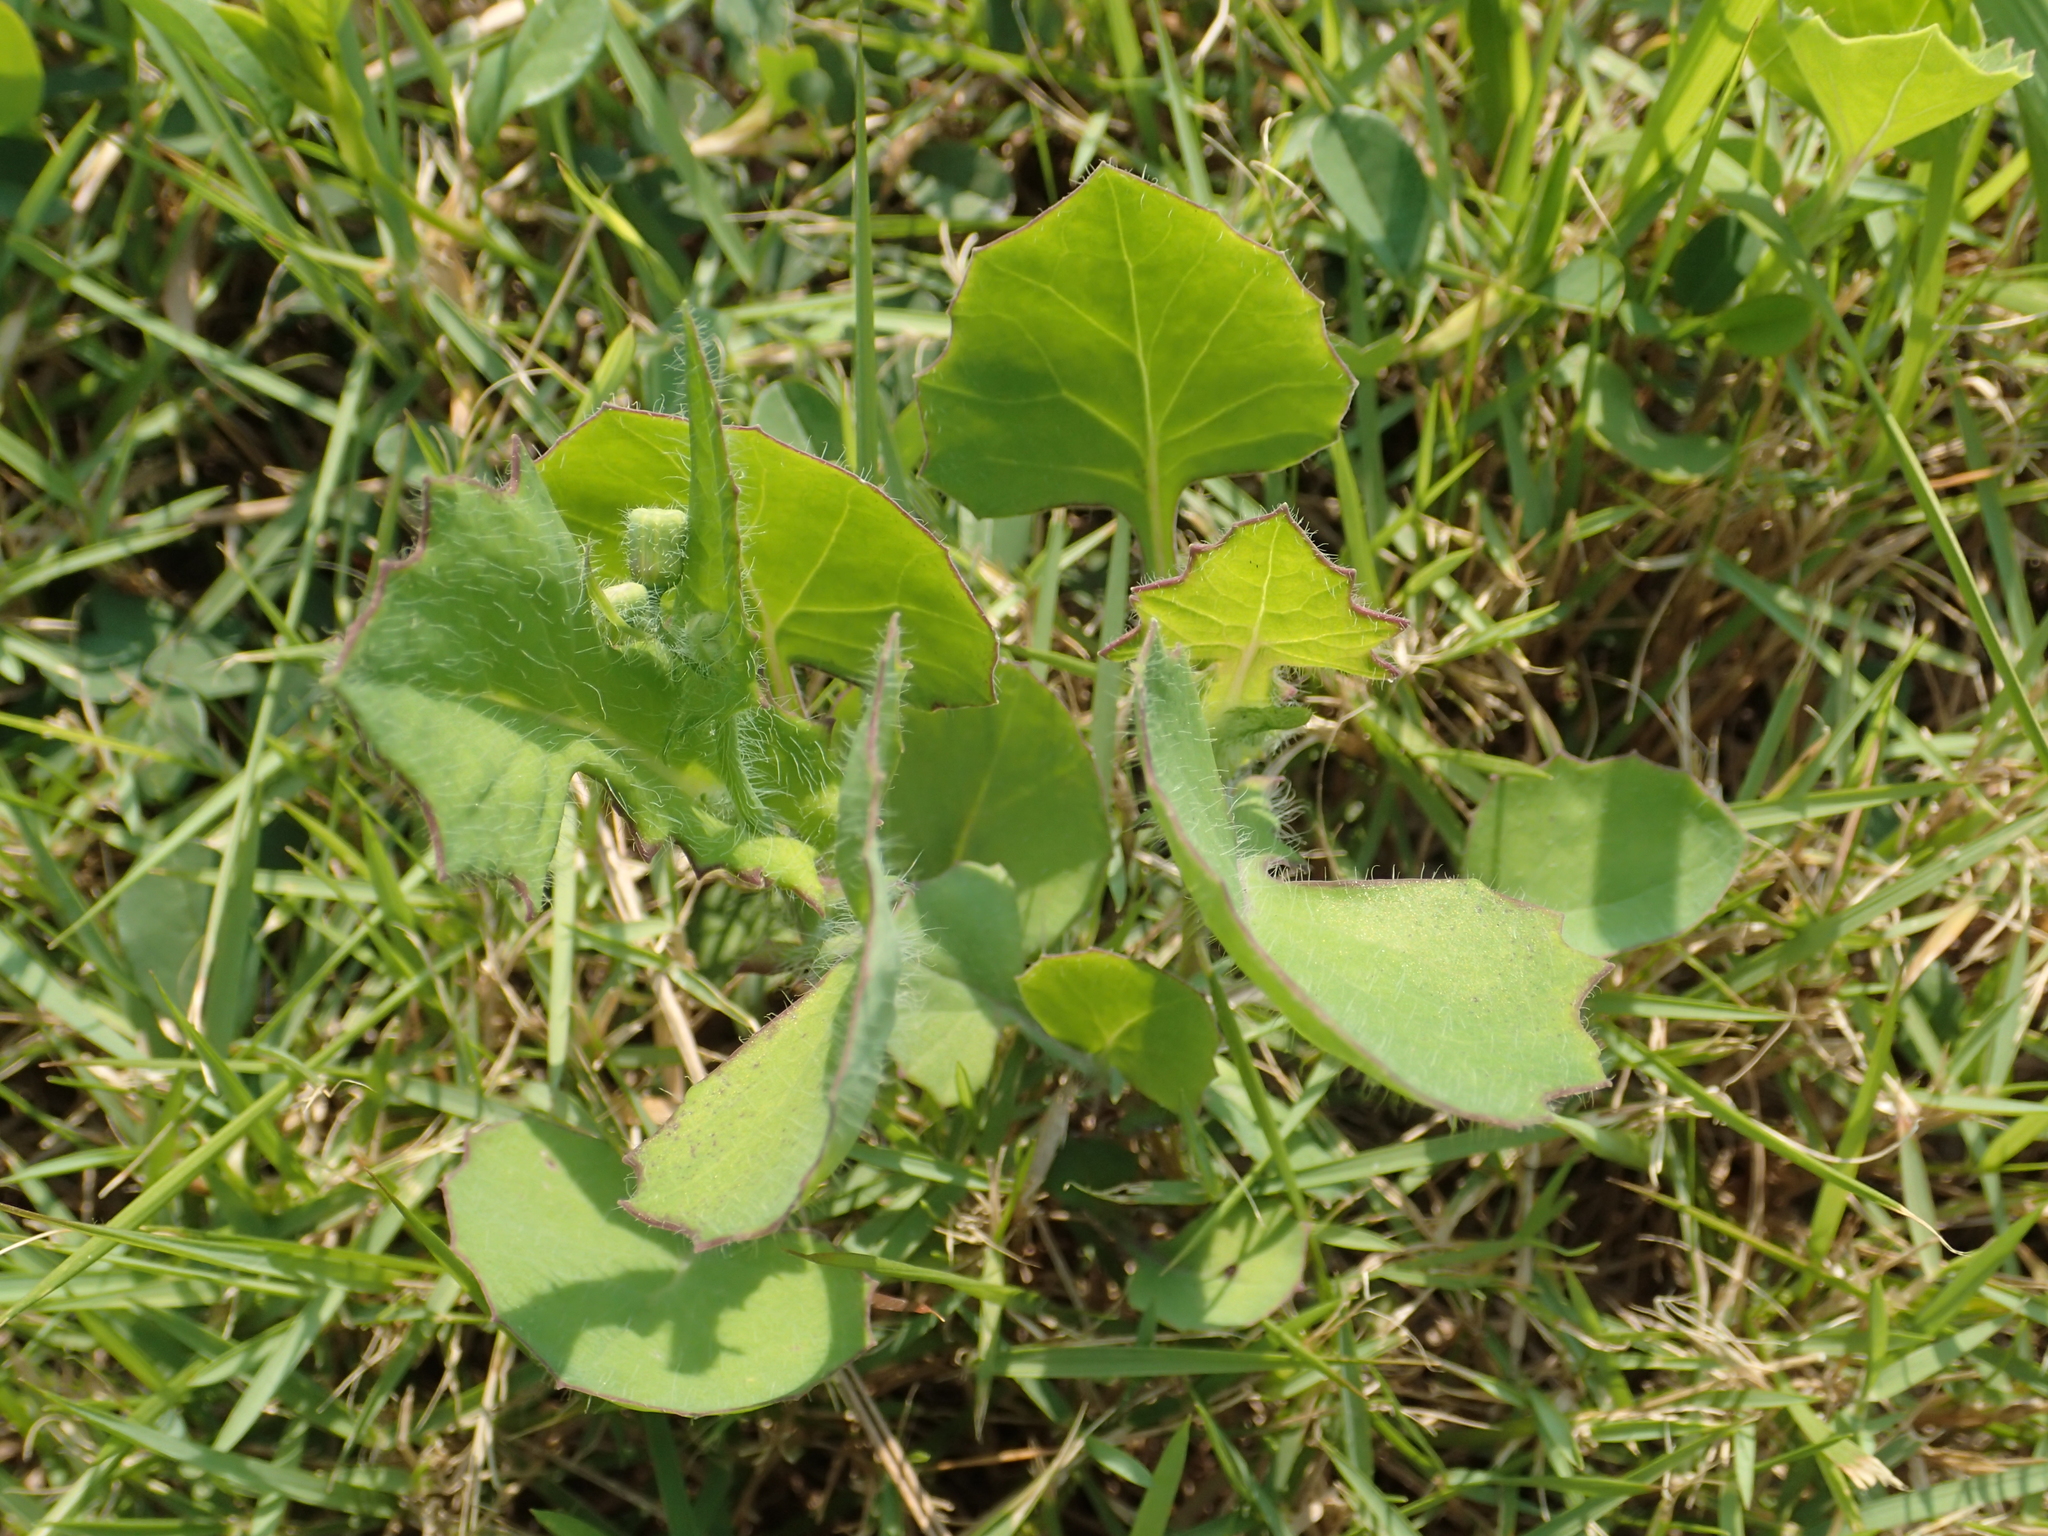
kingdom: Plantae
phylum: Tracheophyta
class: Magnoliopsida
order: Asterales
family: Asteraceae
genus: Emilia
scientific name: Emilia javanica
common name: Tassel-flower
